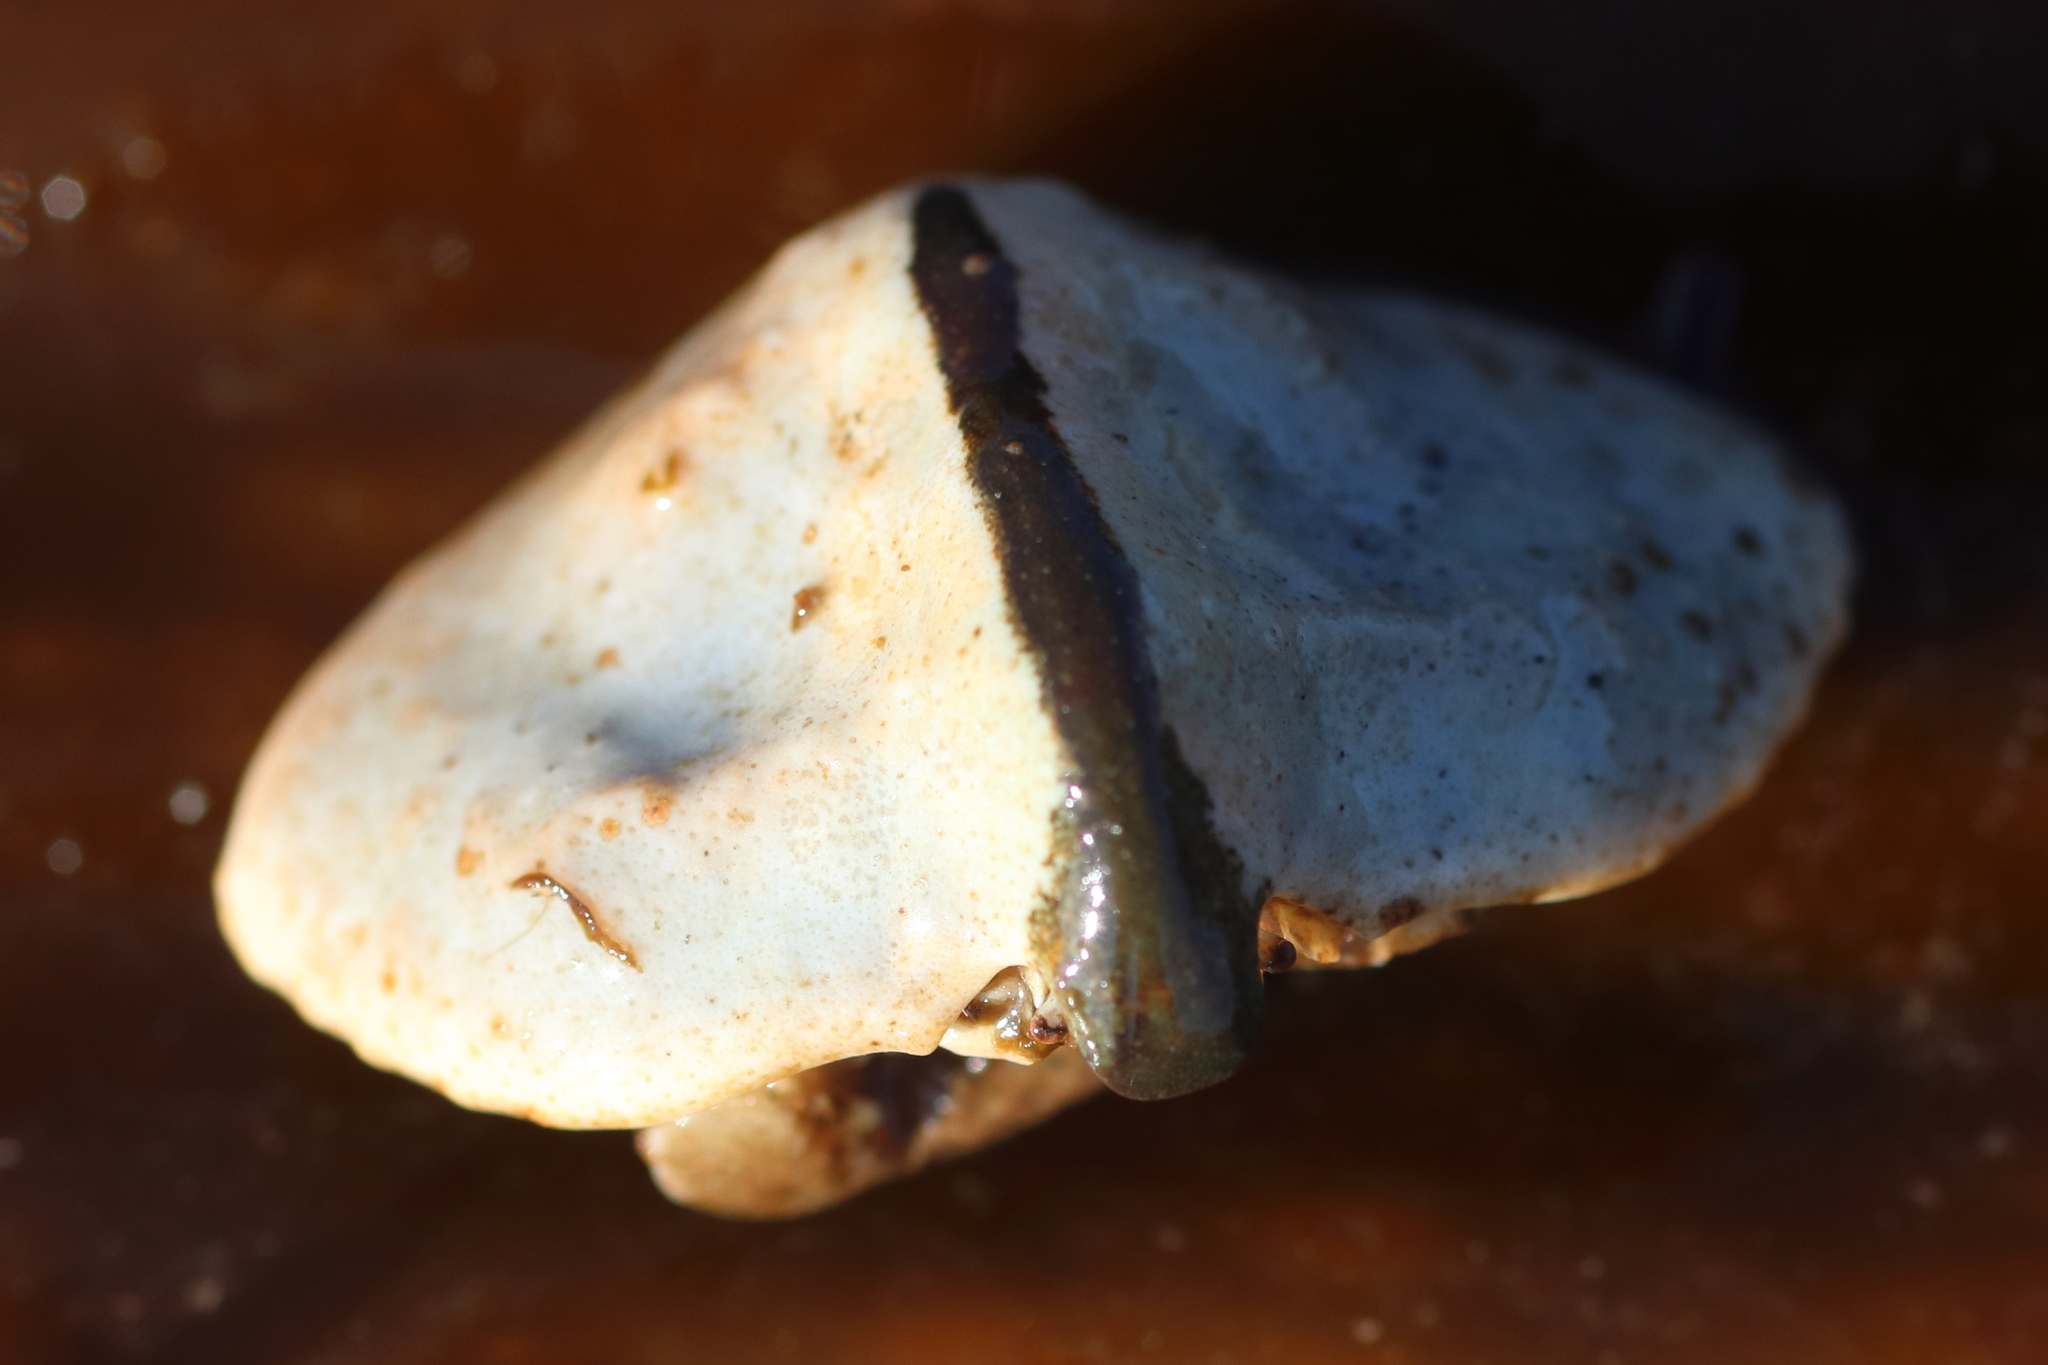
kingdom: Animalia
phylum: Arthropoda
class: Malacostraca
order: Decapoda
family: Lithodidae
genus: Cryptolithodes
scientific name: Cryptolithodes typicus
